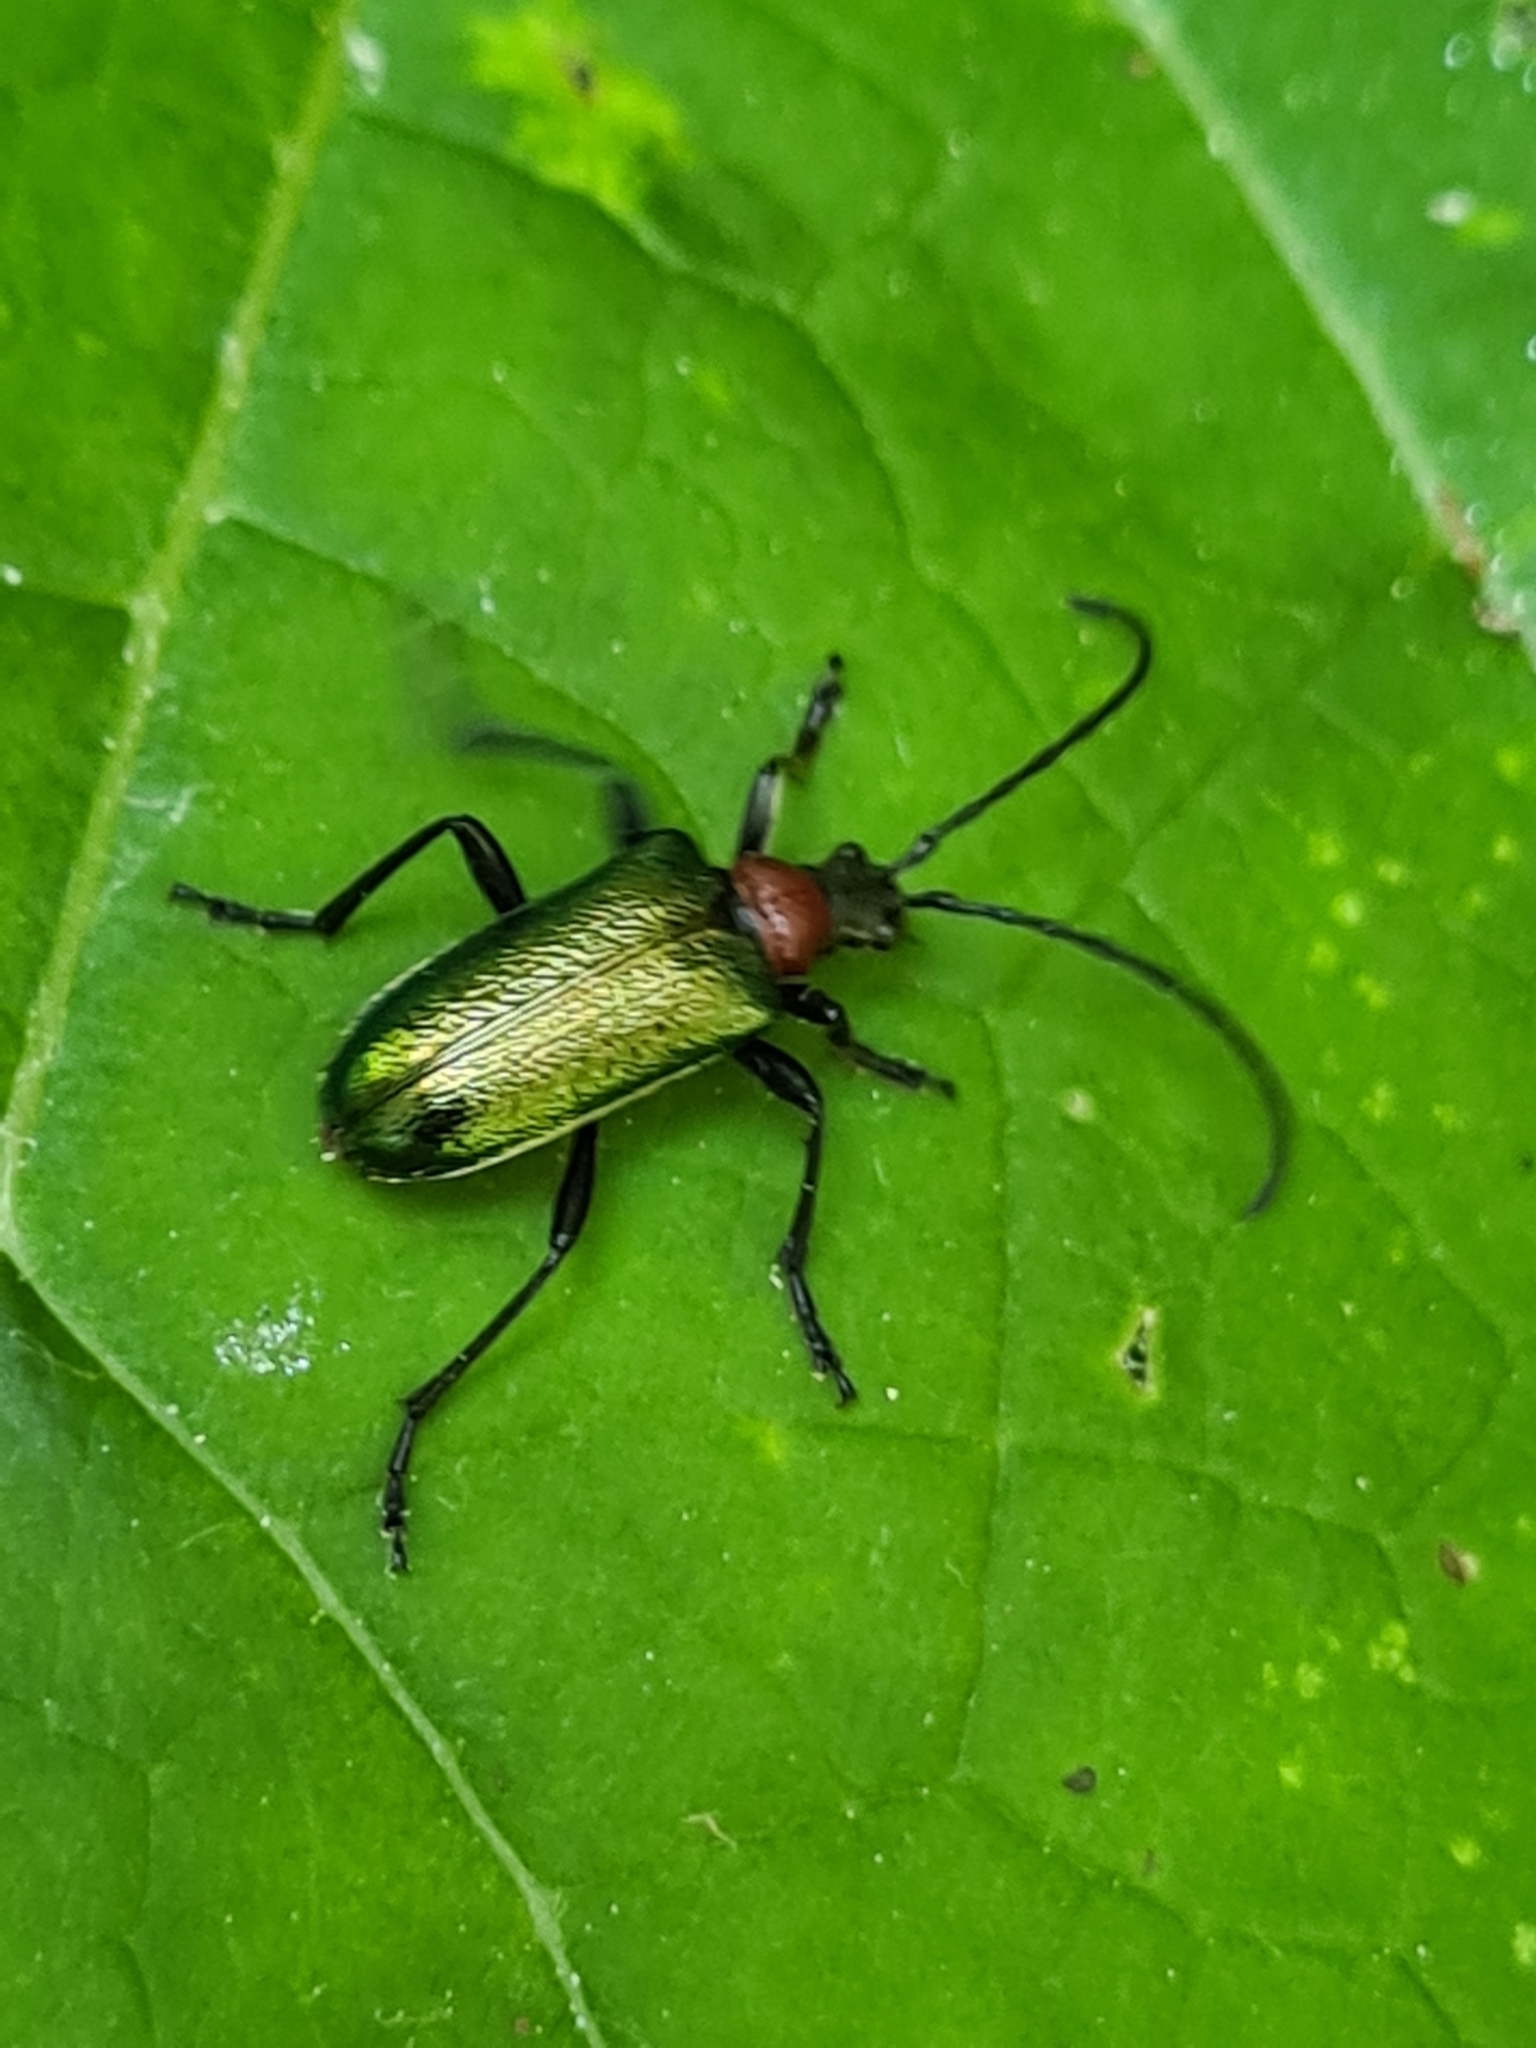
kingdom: Animalia
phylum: Arthropoda
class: Insecta
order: Coleoptera
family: Cerambycidae
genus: Gaurotes
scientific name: Gaurotes virginea
